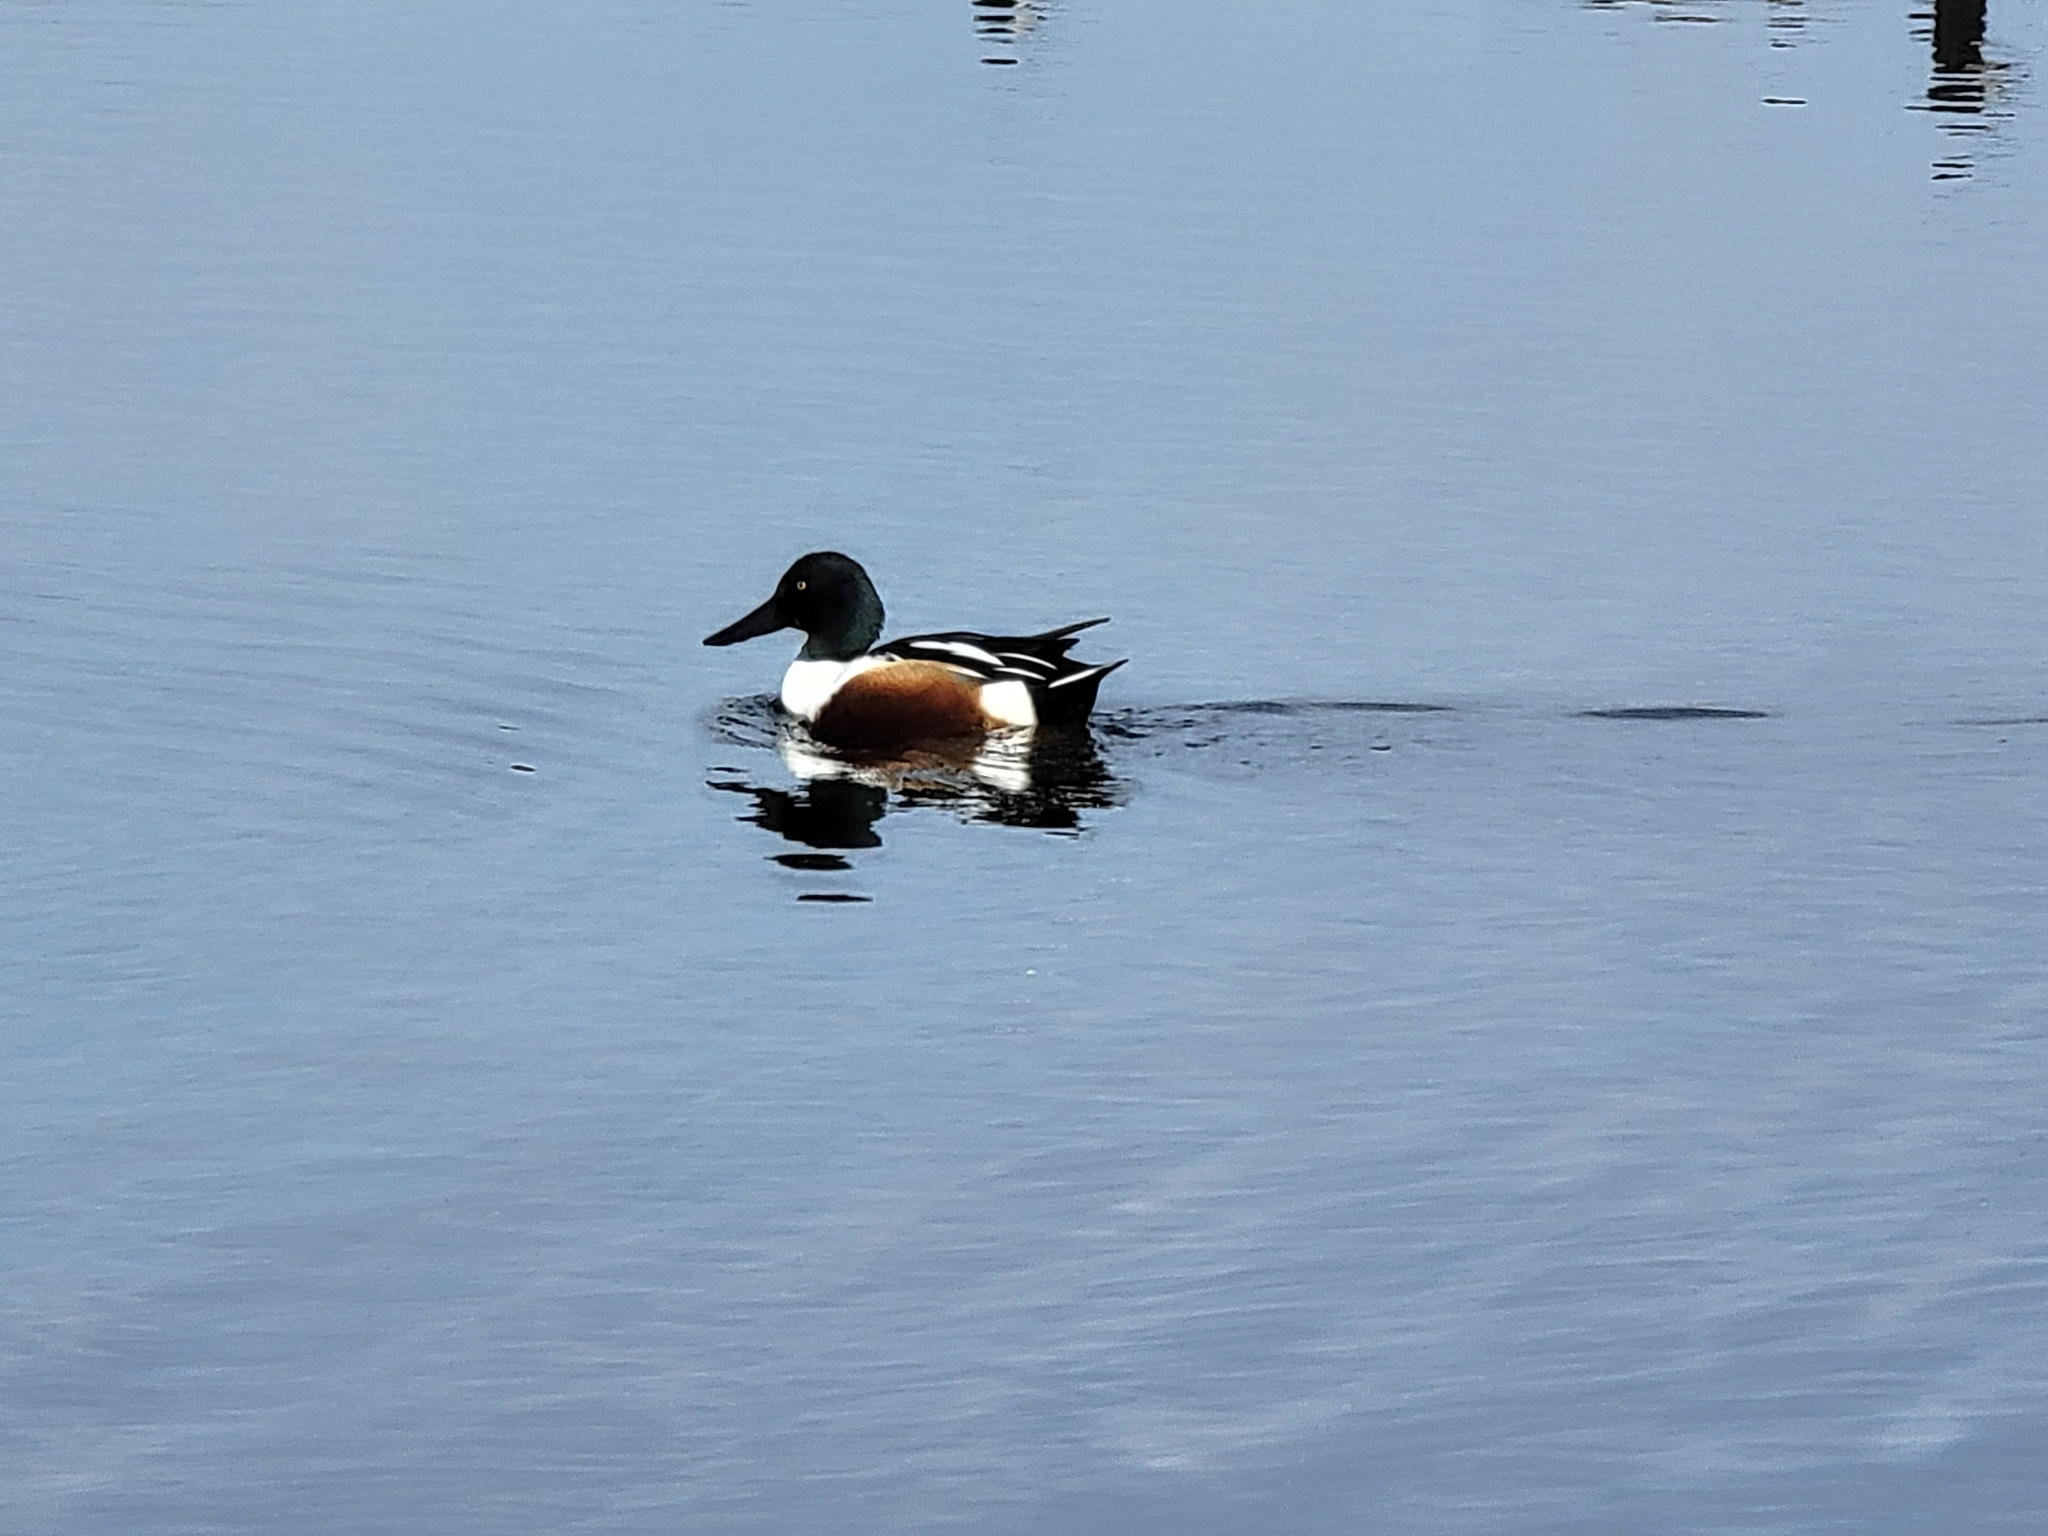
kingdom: Animalia
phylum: Chordata
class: Aves
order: Anseriformes
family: Anatidae
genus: Spatula
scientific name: Spatula clypeata
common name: Northern shoveler
